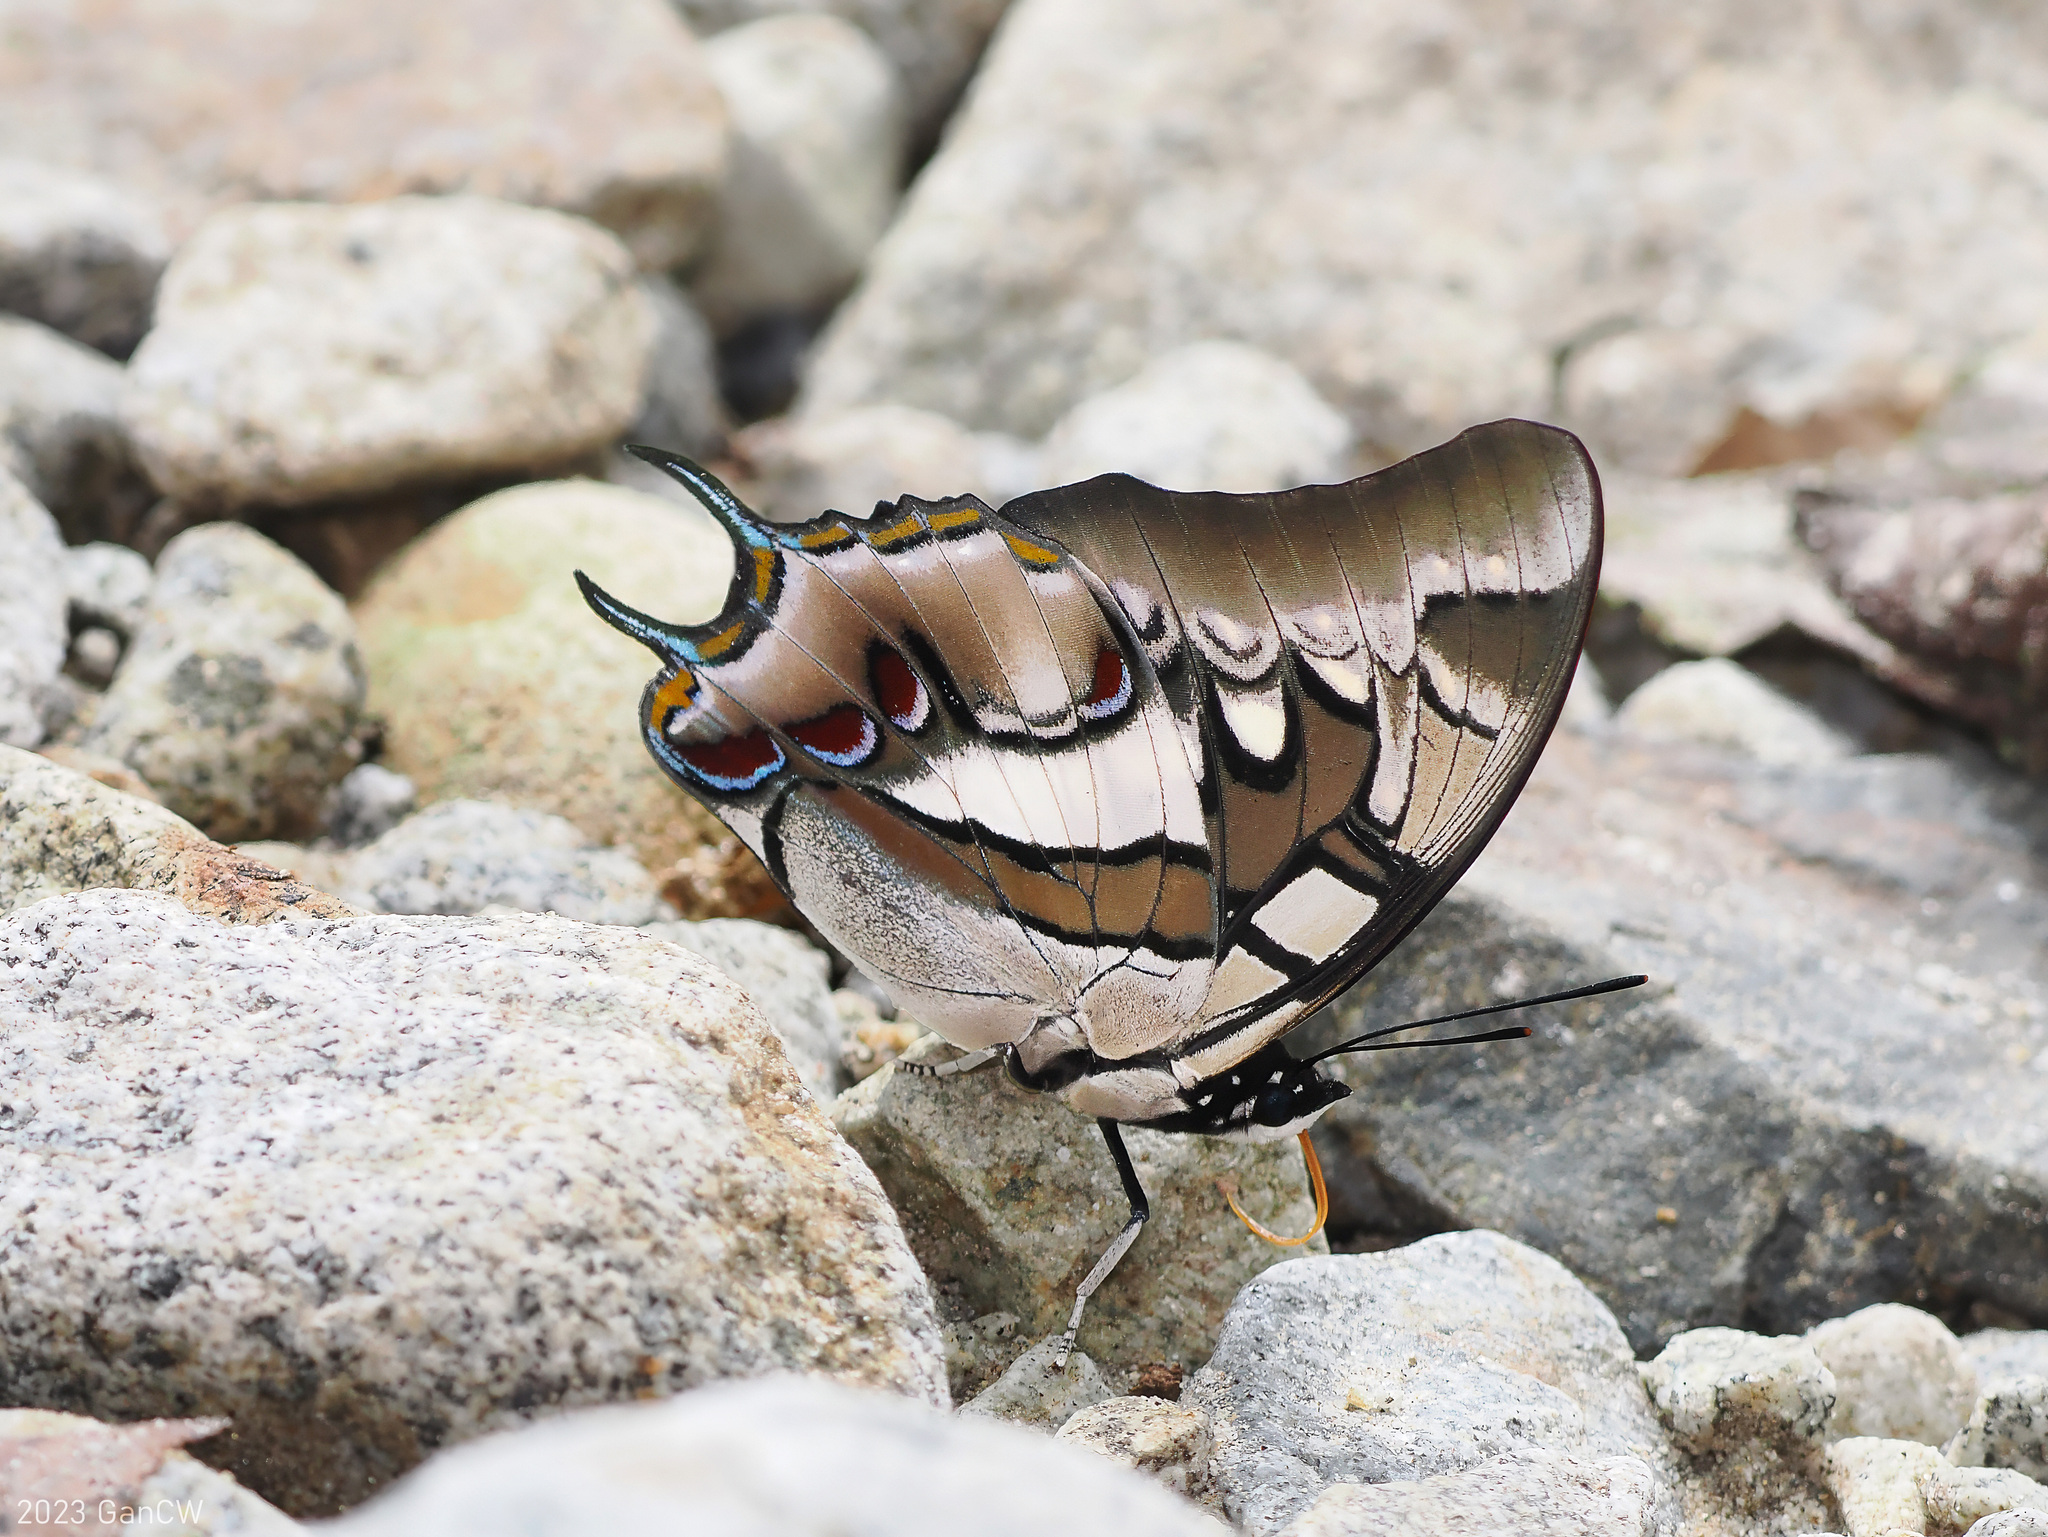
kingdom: Animalia
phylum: Arthropoda
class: Insecta
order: Lepidoptera
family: Nymphalidae
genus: Polyura
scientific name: Polyura cognatus
